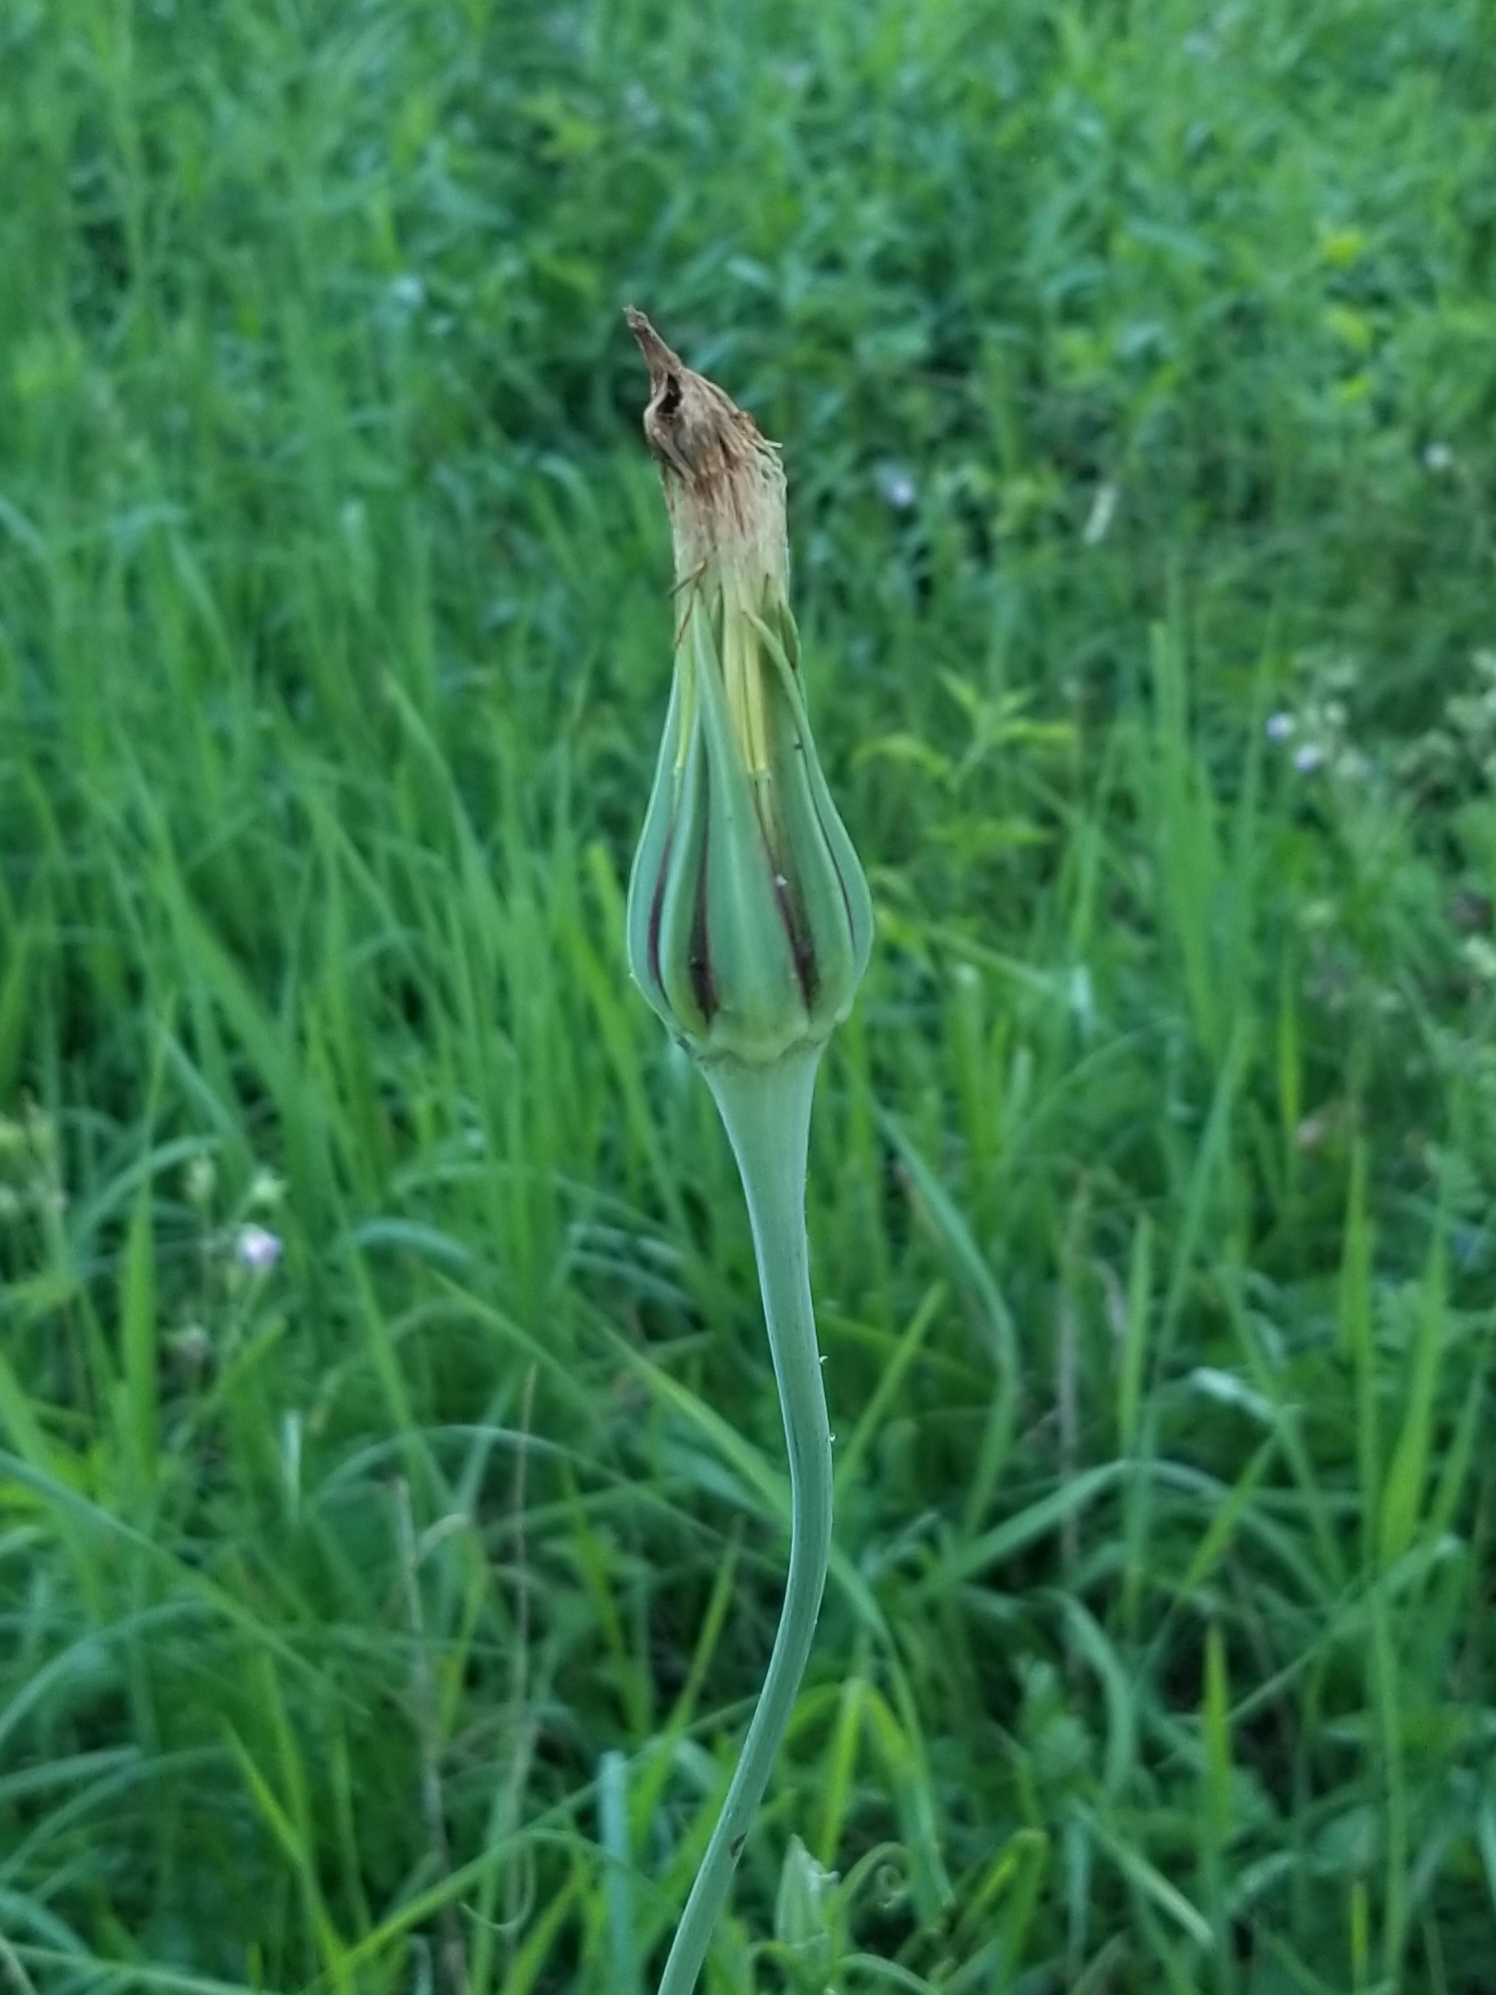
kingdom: Plantae
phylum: Tracheophyta
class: Magnoliopsida
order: Asterales
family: Asteraceae
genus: Tragopogon
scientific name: Tragopogon pratensis
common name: Goat's-beard
